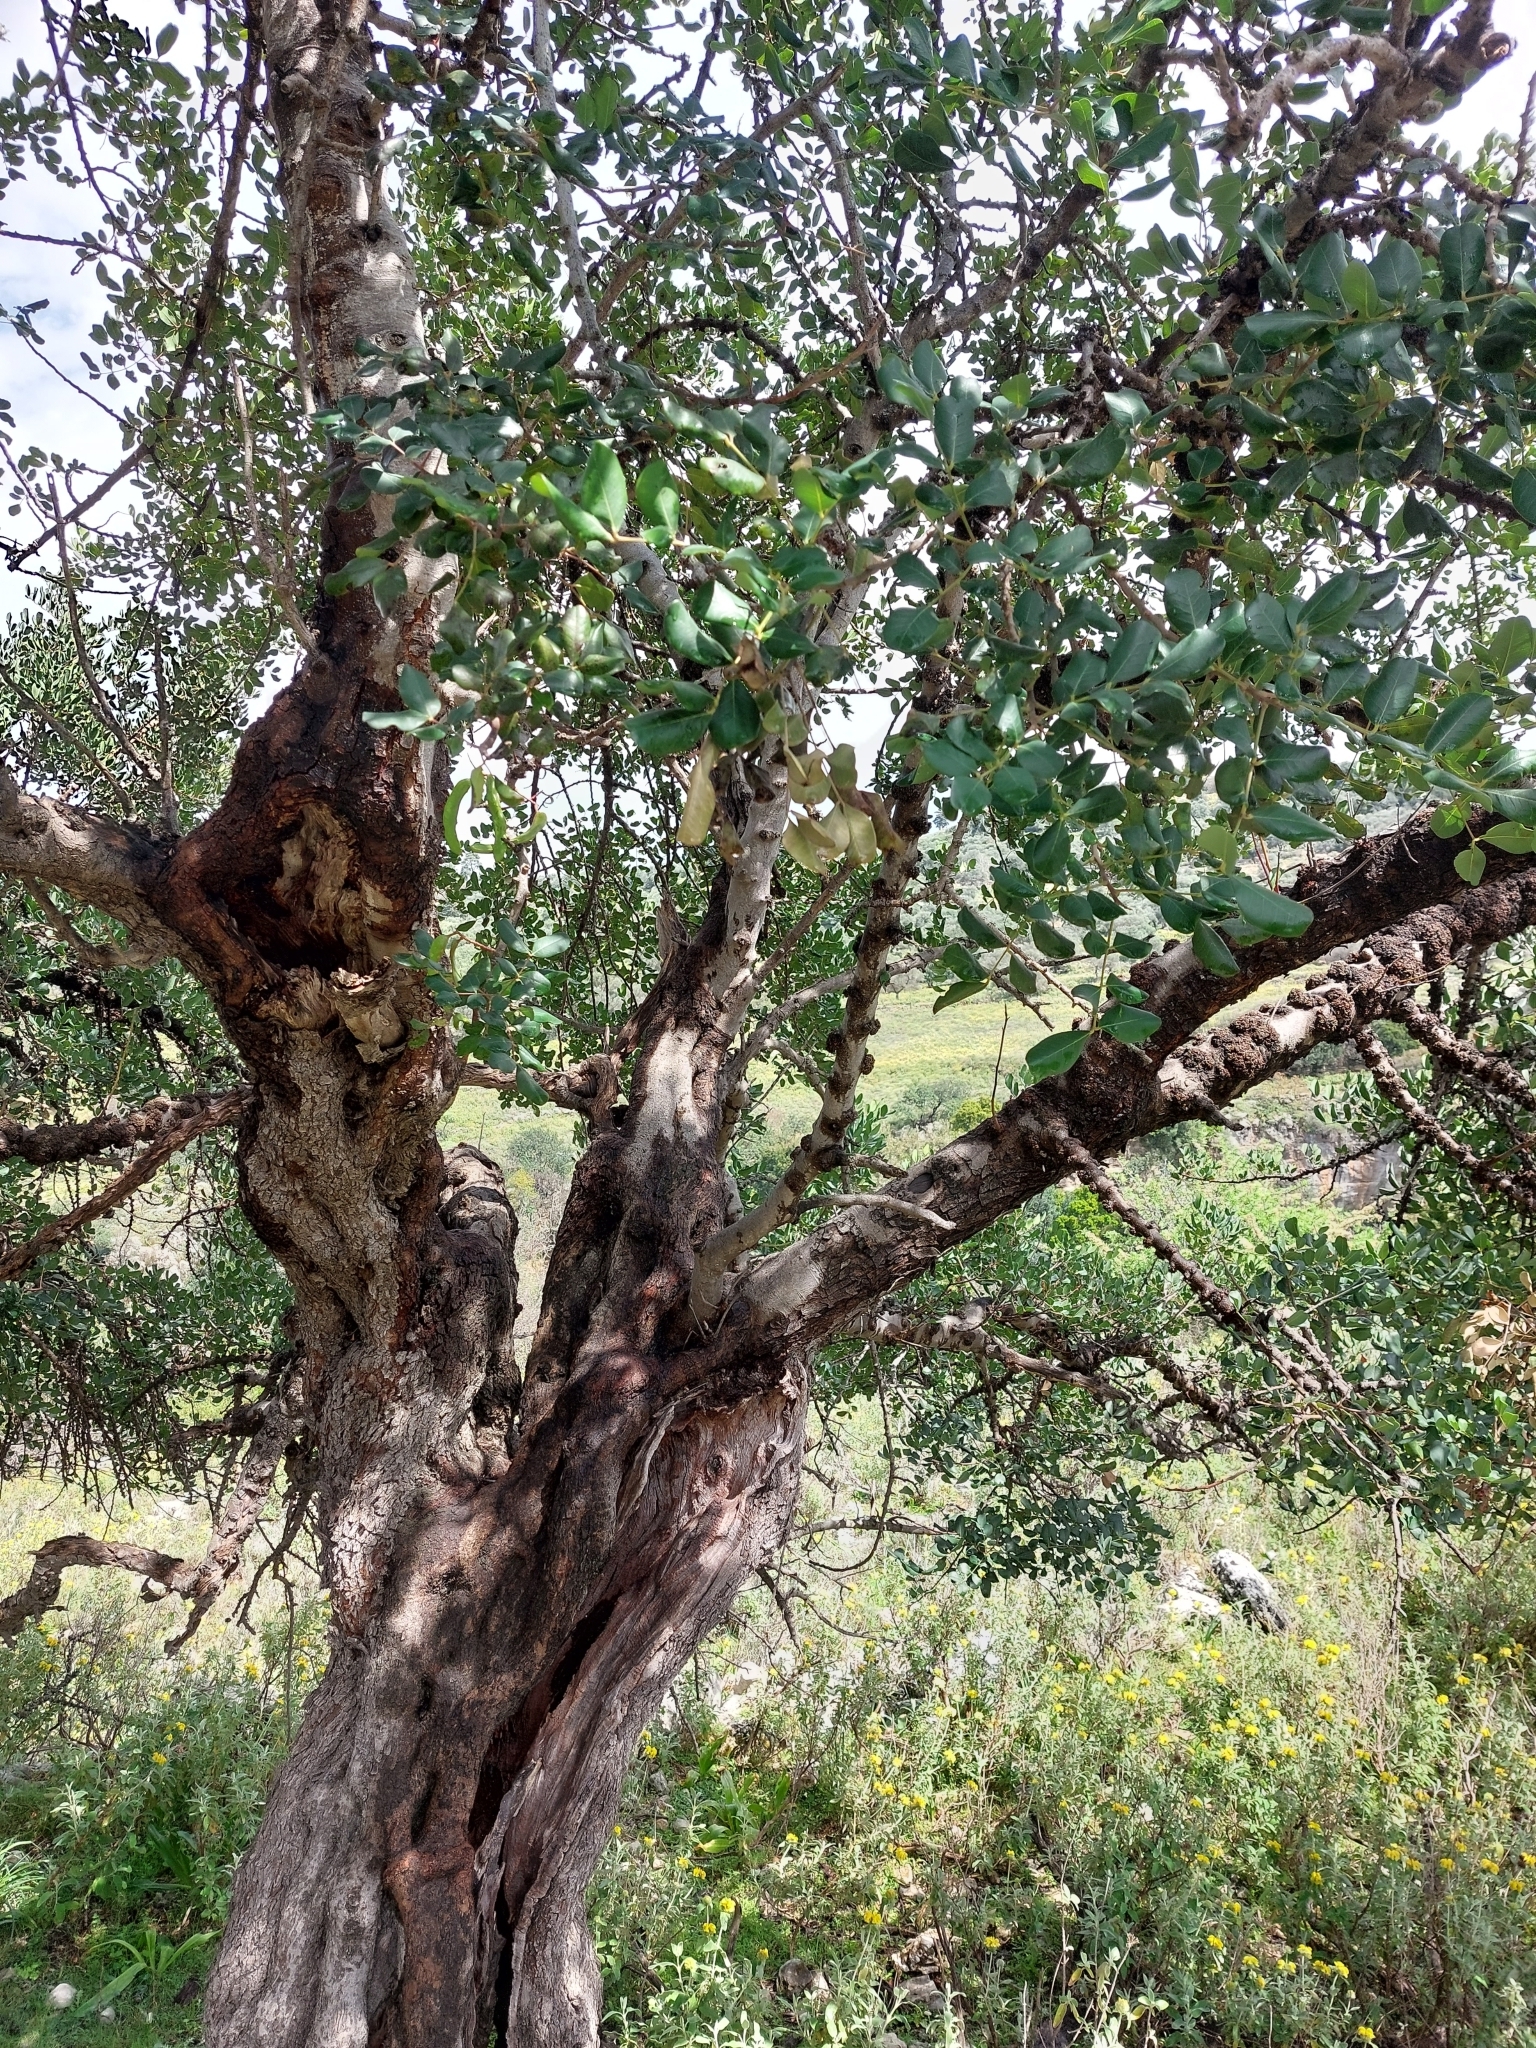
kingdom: Plantae
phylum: Tracheophyta
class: Magnoliopsida
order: Fabales
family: Fabaceae
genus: Ceratonia
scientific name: Ceratonia siliqua
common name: Carob
